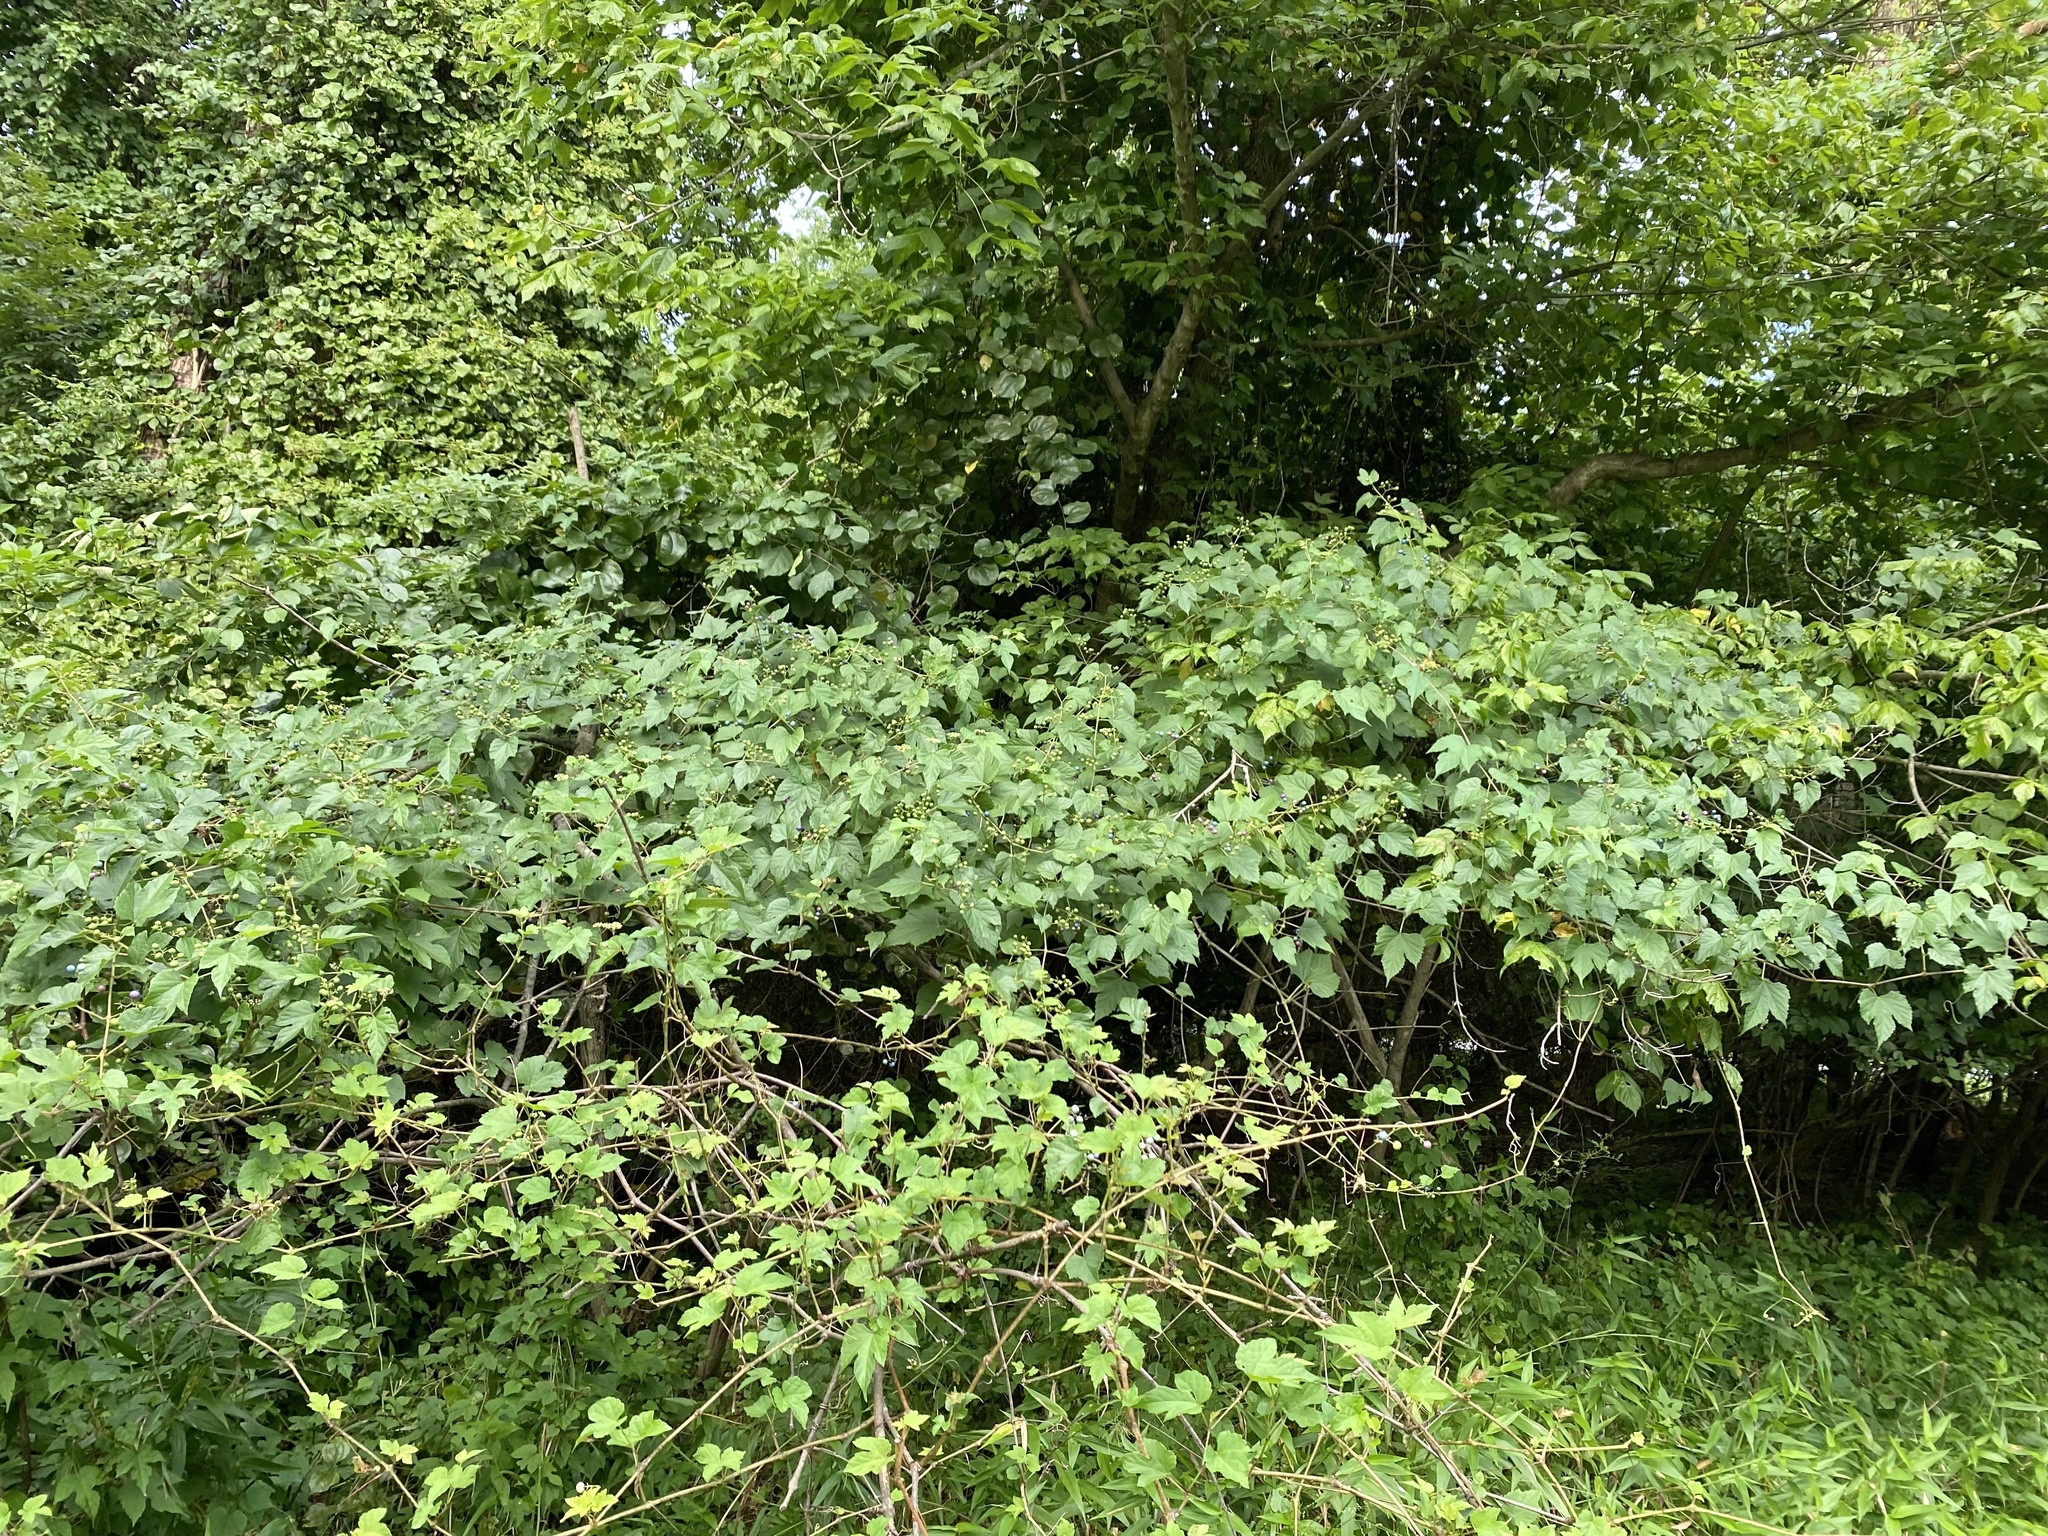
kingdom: Plantae
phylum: Tracheophyta
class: Magnoliopsida
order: Vitales
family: Vitaceae
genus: Ampelopsis
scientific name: Ampelopsis glandulosa
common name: Amur peppervine
